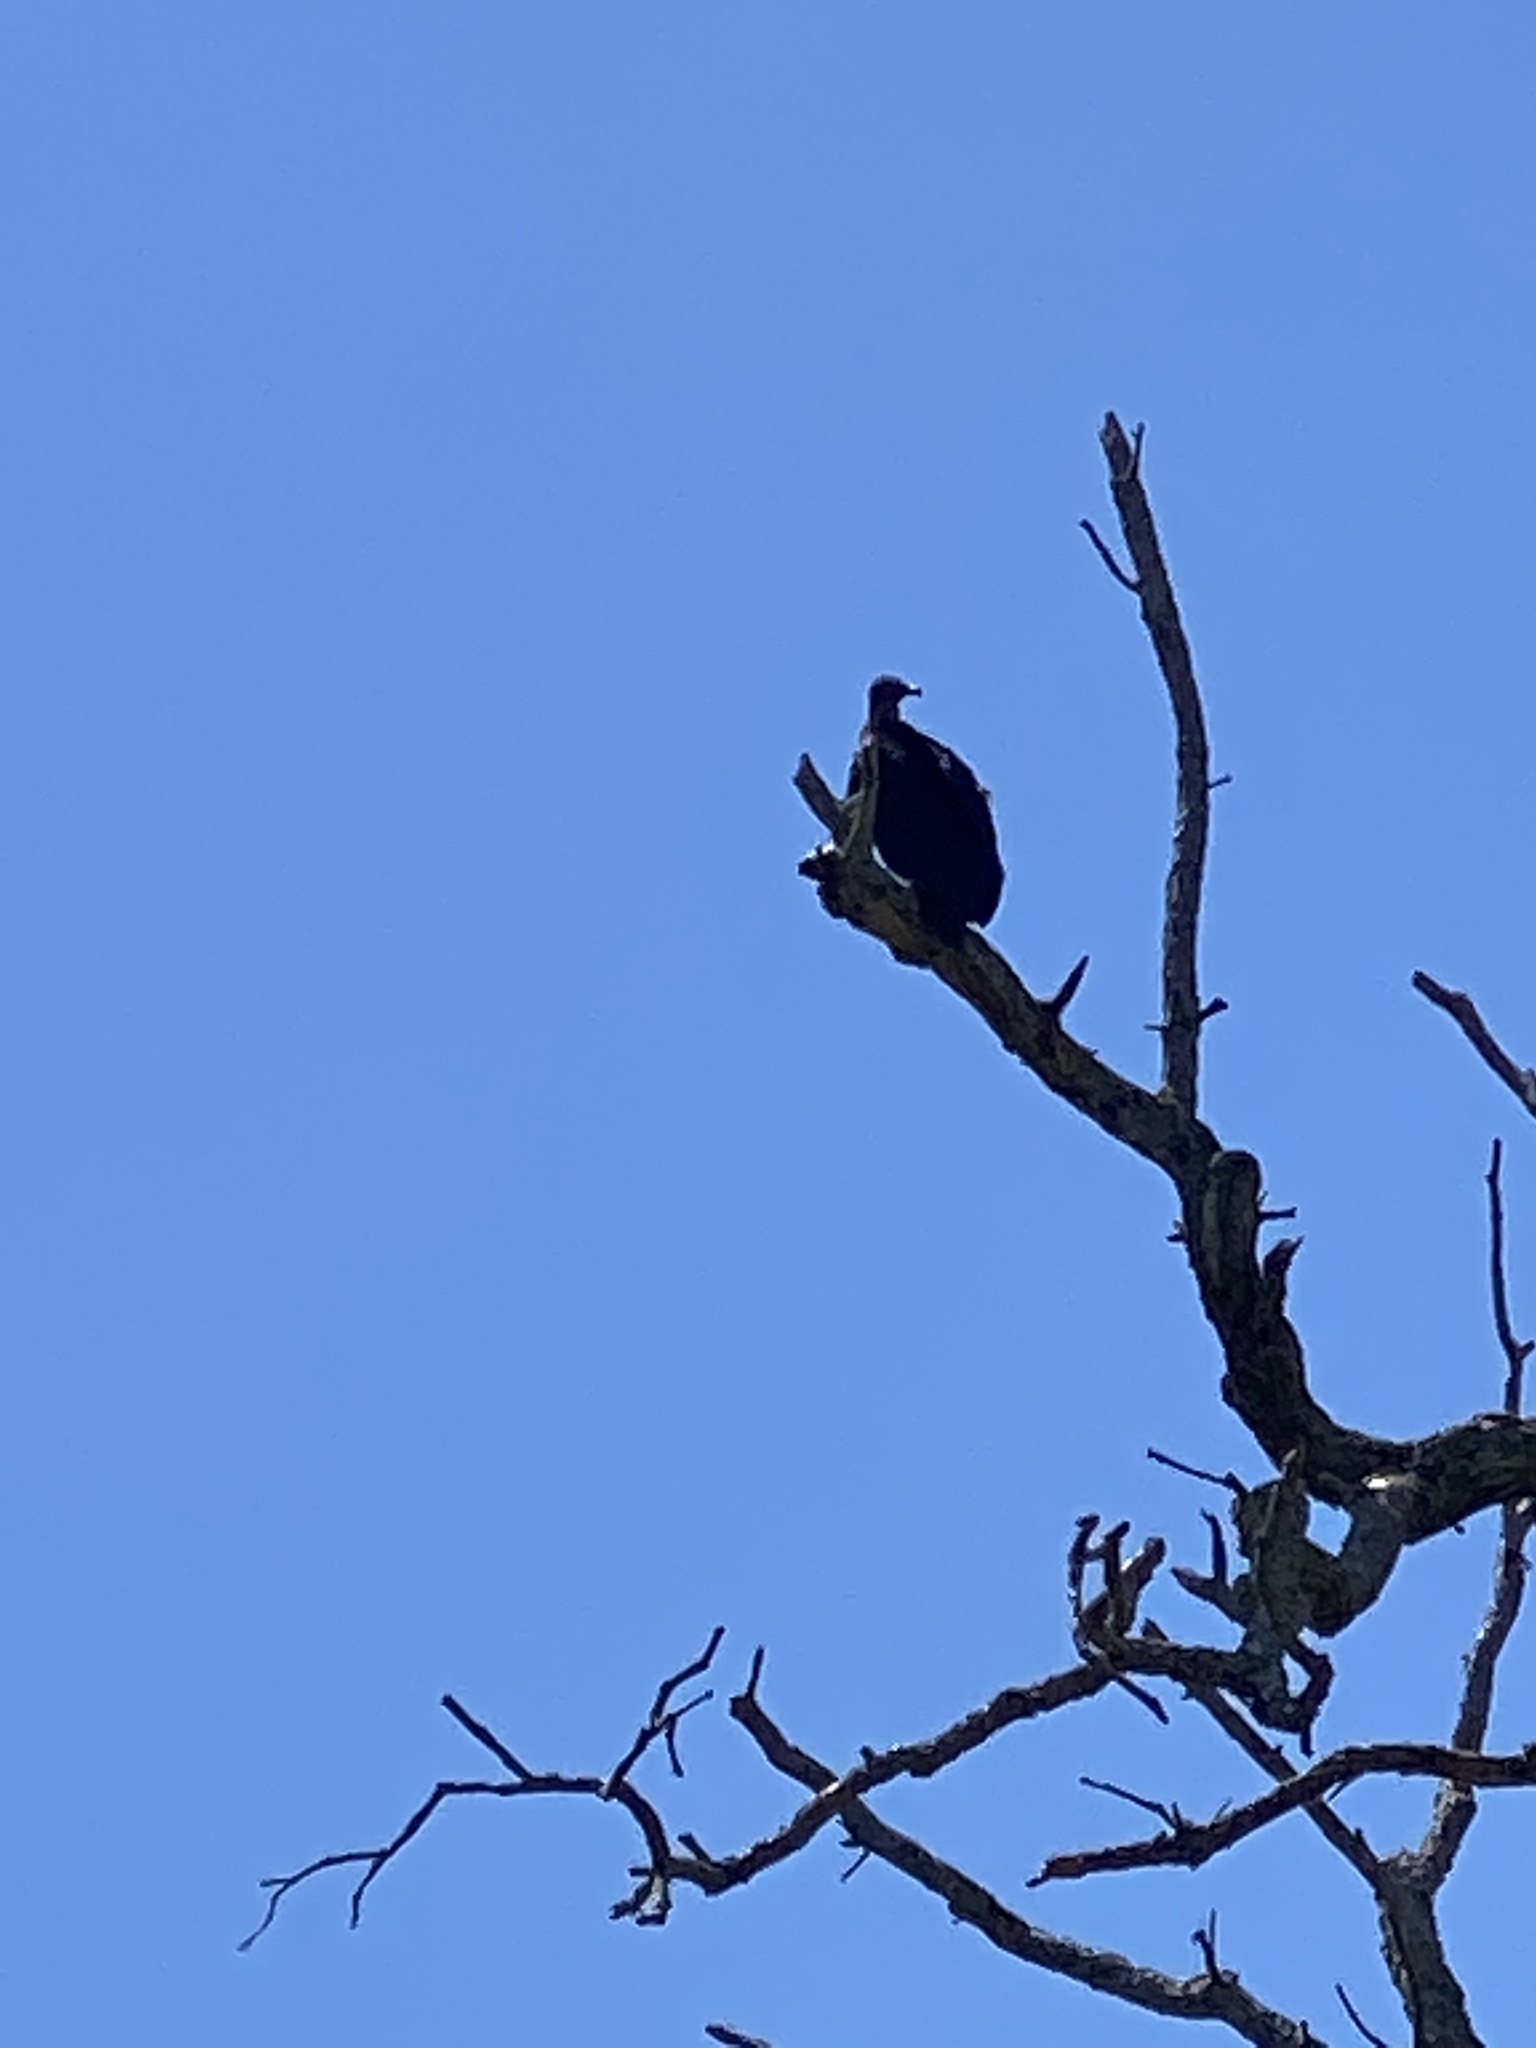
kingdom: Animalia
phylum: Chordata
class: Aves
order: Accipitriformes
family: Cathartidae
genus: Cathartes
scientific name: Cathartes aura
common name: Turkey vulture
